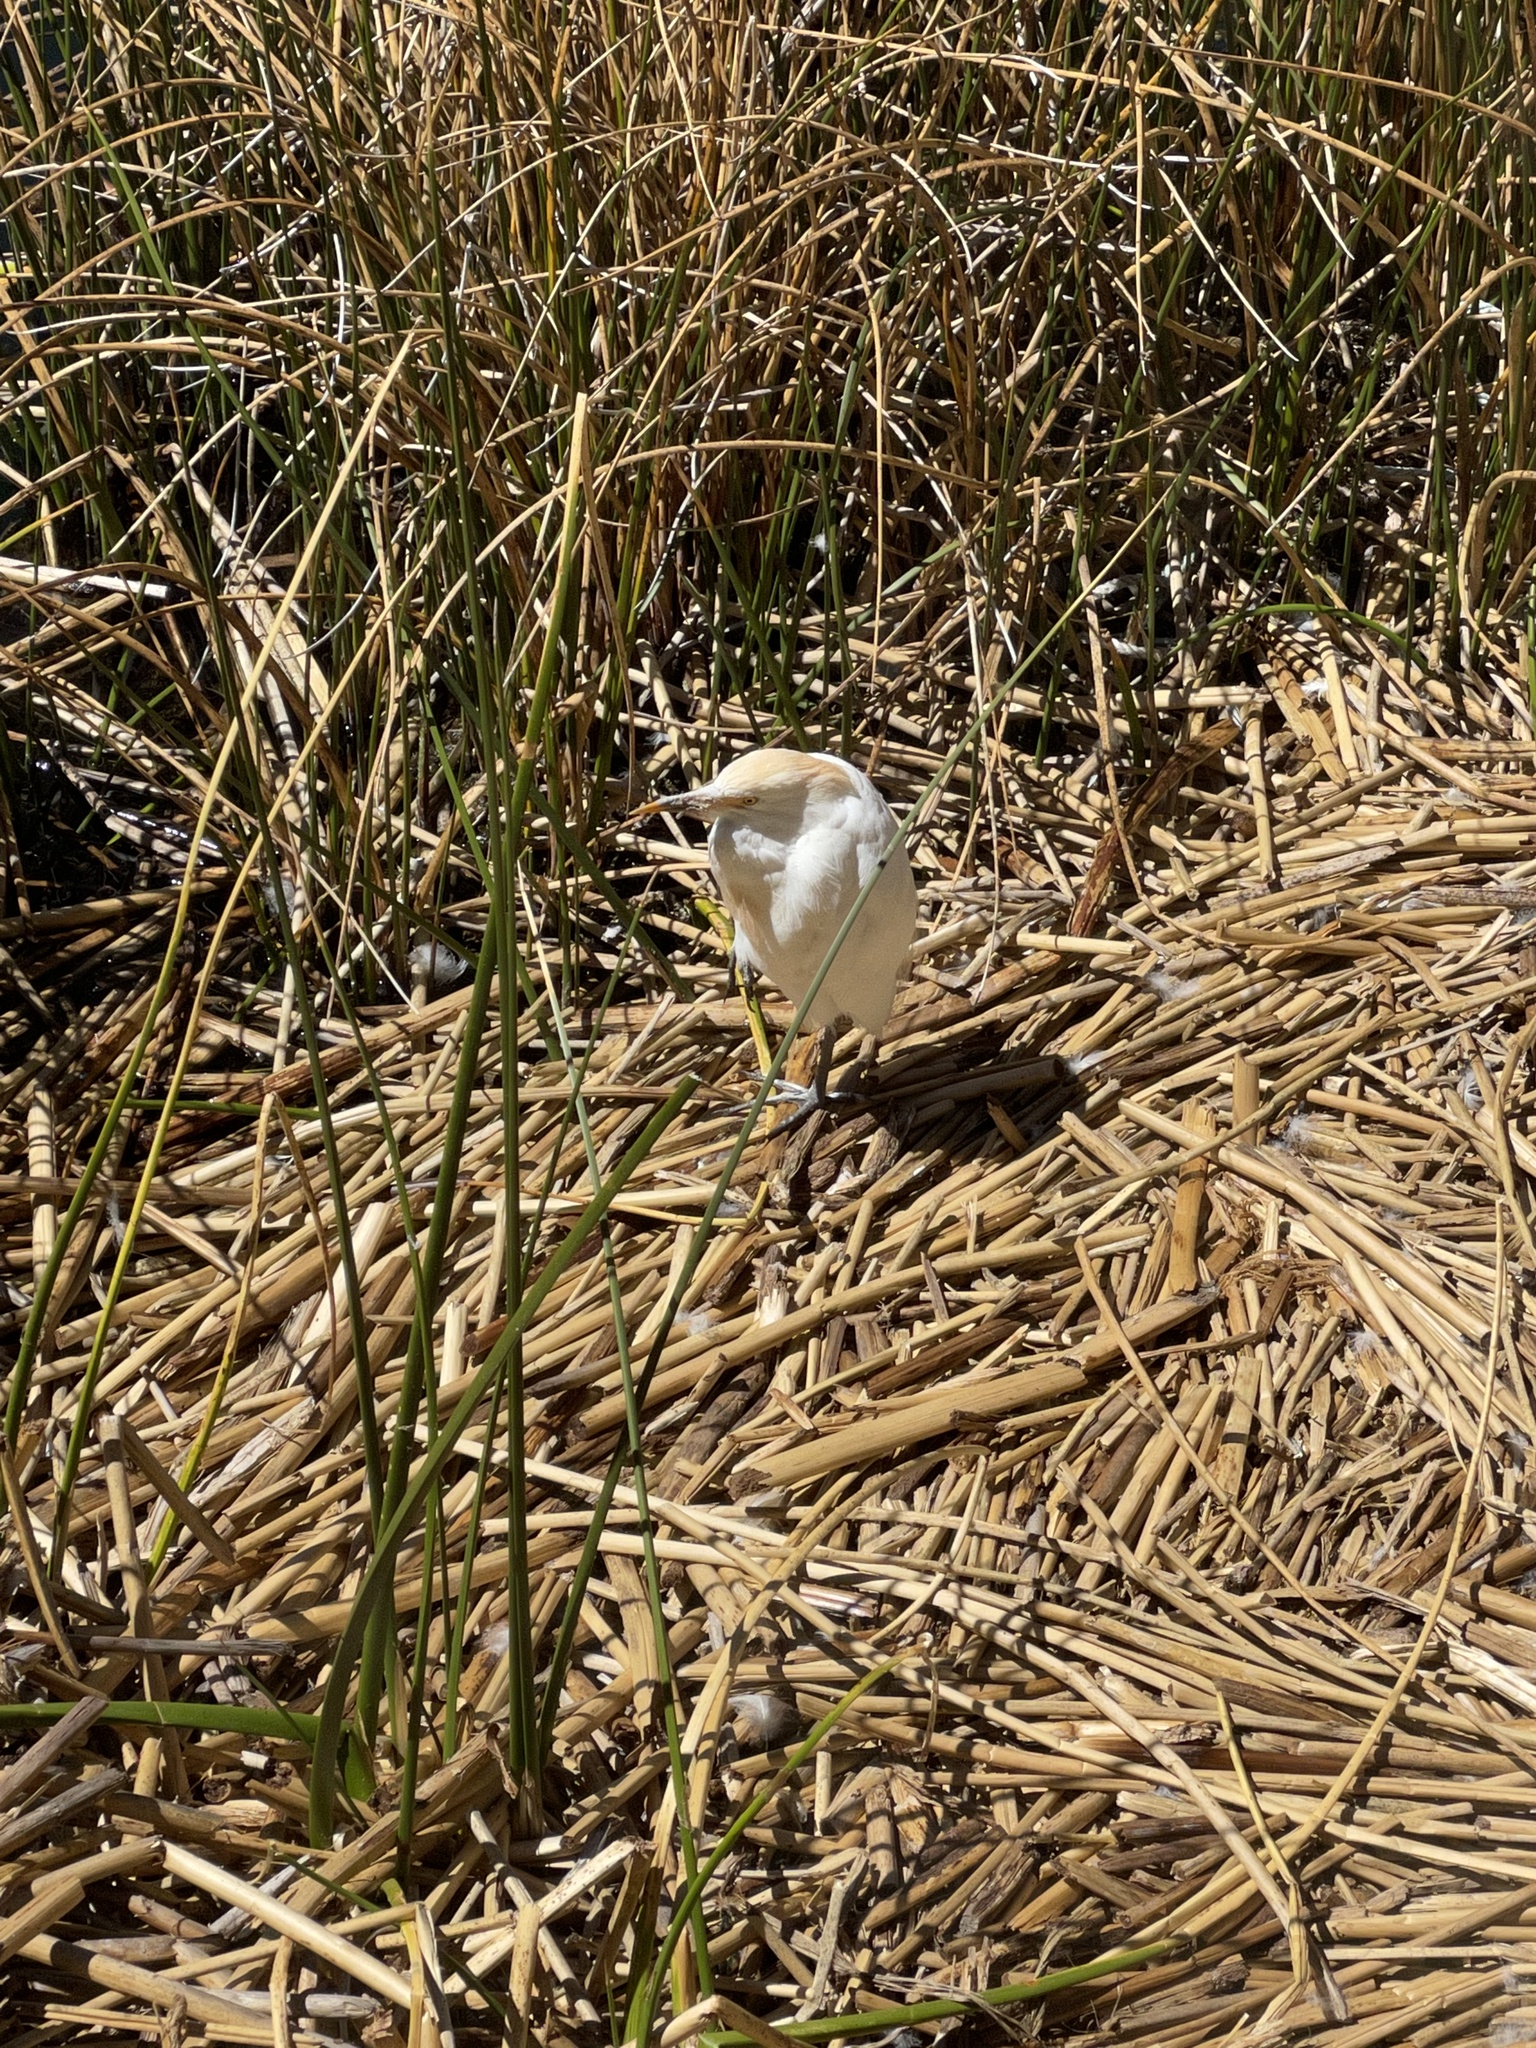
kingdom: Animalia
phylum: Chordata
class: Aves
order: Pelecaniformes
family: Ardeidae
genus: Bubulcus
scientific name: Bubulcus ibis
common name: Cattle egret
